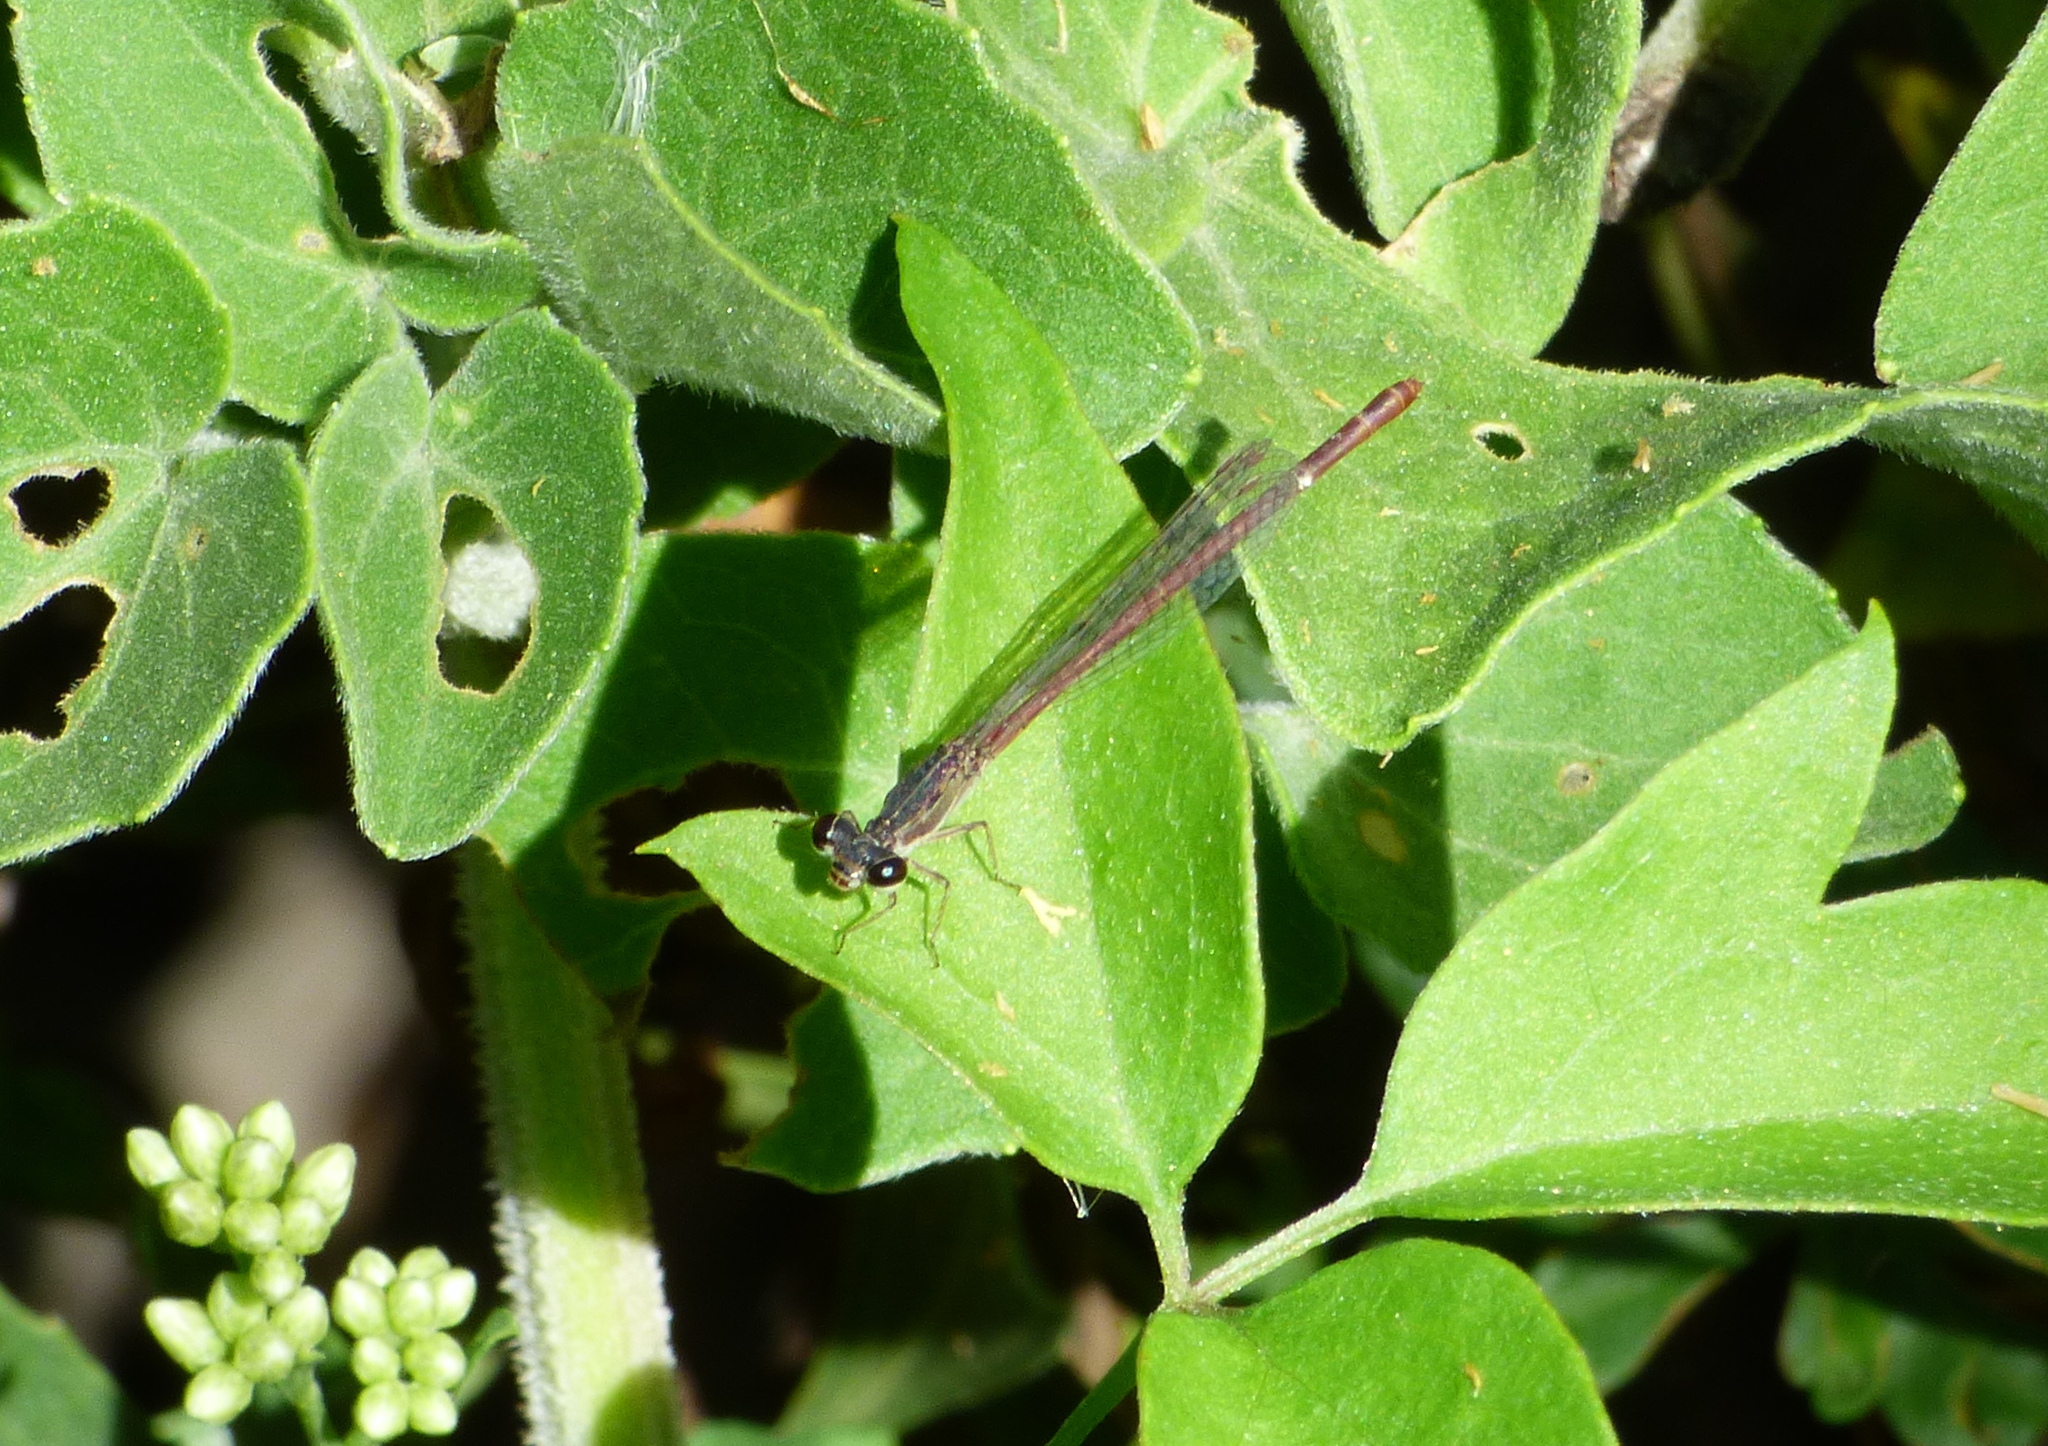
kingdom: Animalia
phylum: Arthropoda
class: Insecta
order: Odonata
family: Coenagrionidae
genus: Telebasis
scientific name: Telebasis willinki
